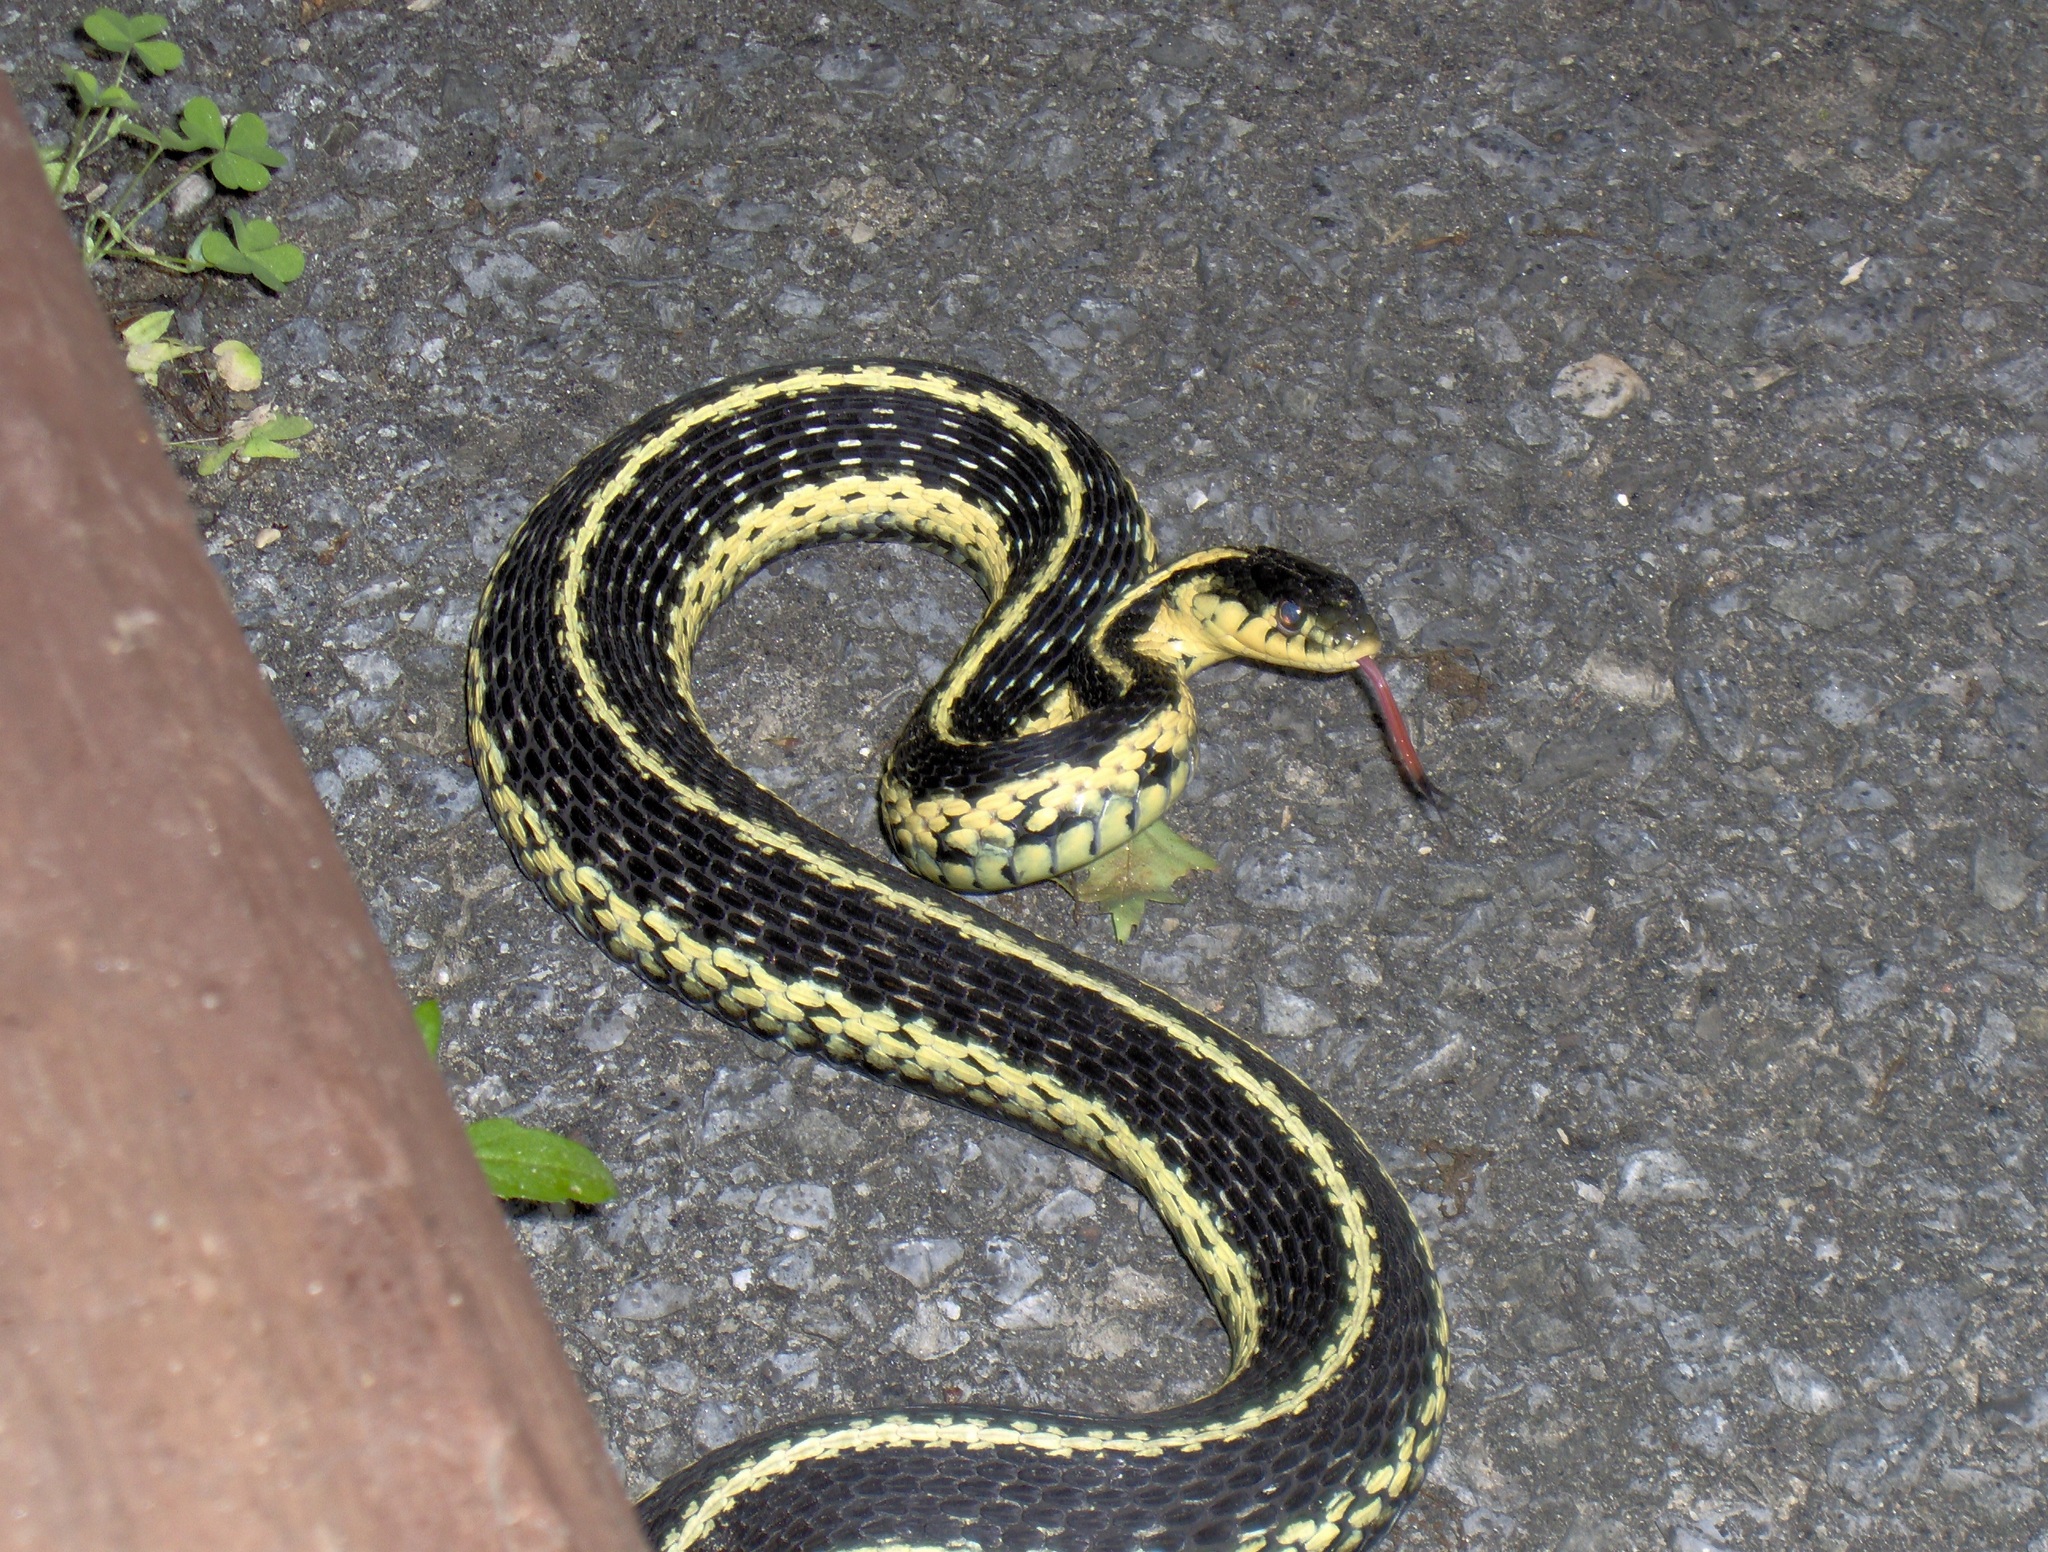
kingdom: Animalia
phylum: Chordata
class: Squamata
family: Colubridae
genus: Thamnophis
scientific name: Thamnophis sirtalis
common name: Common garter snake
